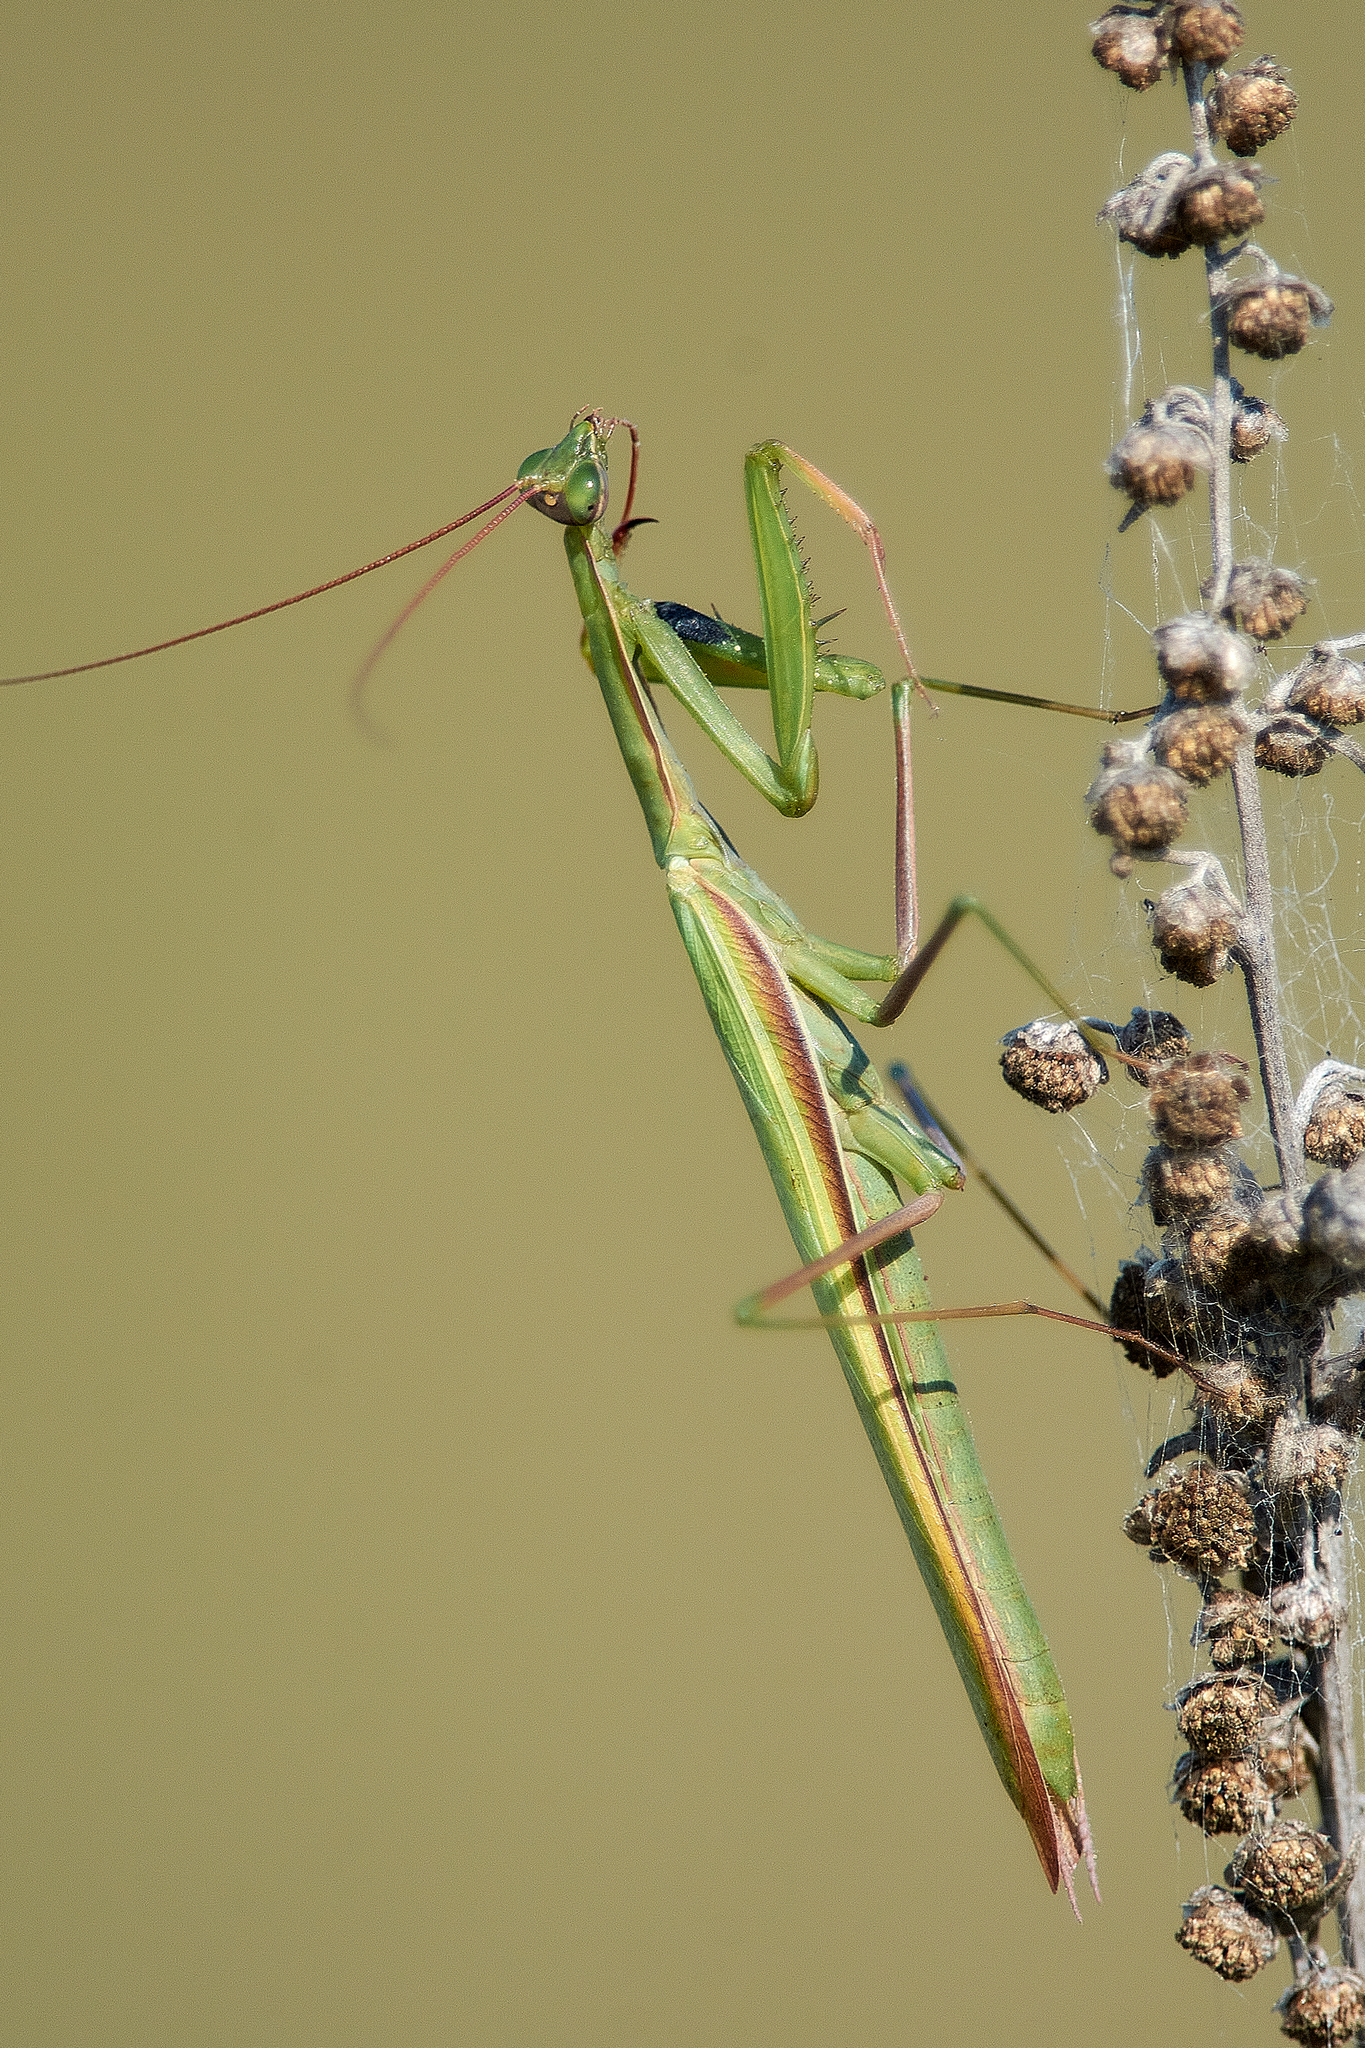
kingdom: Animalia
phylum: Arthropoda
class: Insecta
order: Mantodea
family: Mantidae
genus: Mantis
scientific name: Mantis religiosa
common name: Praying mantis
